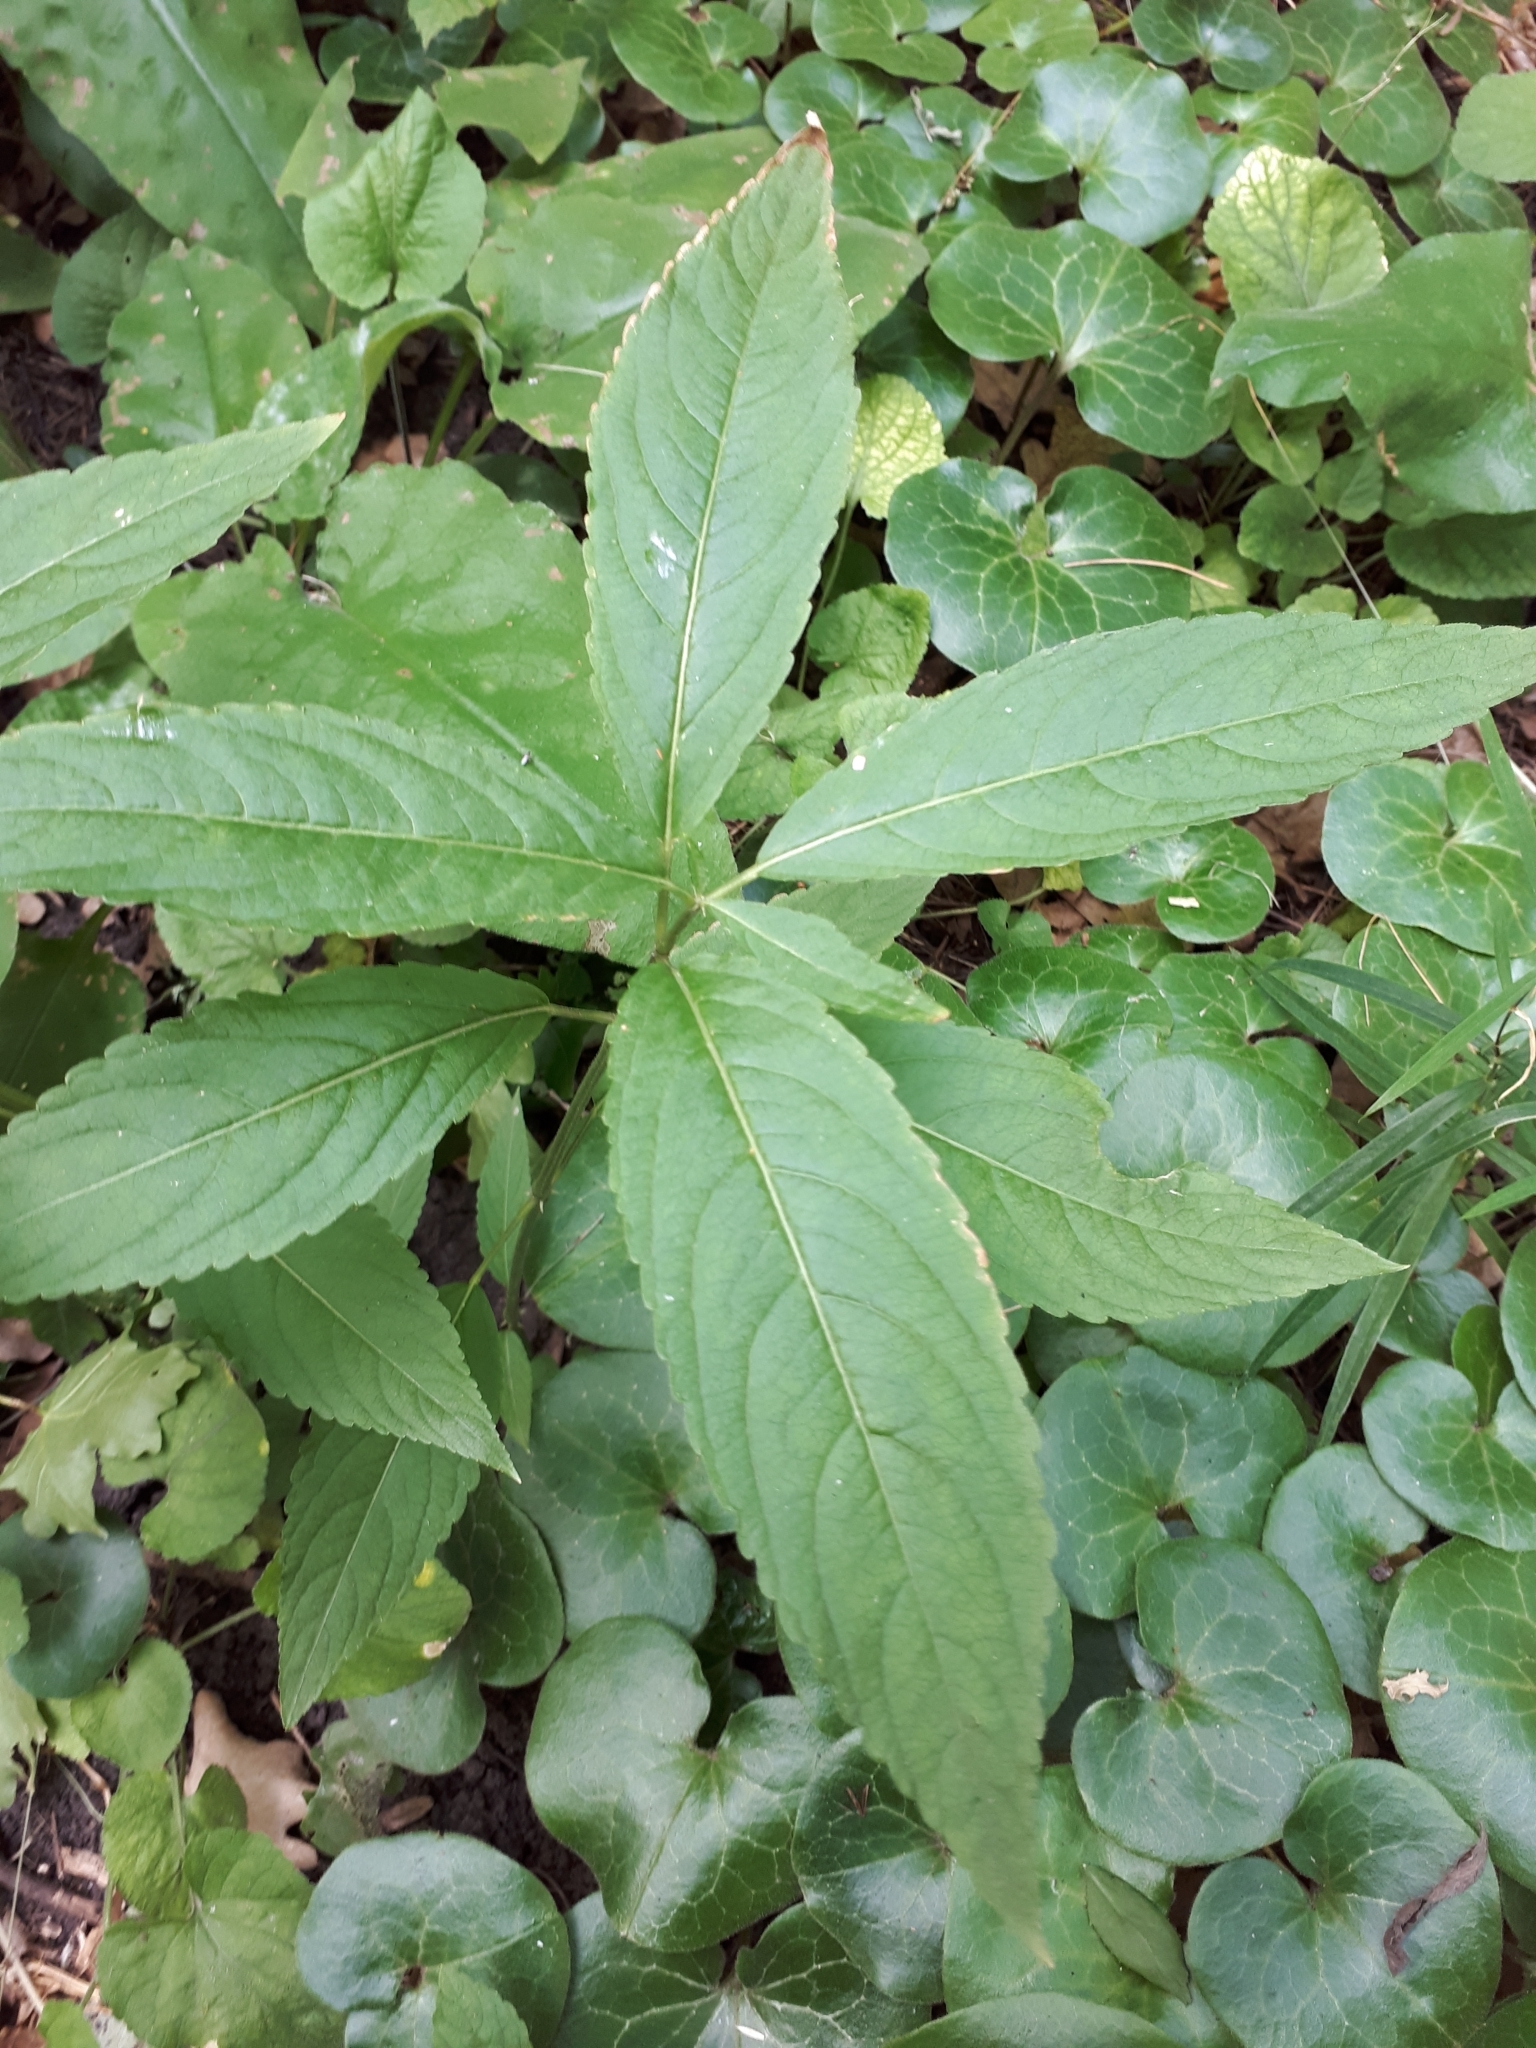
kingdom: Plantae
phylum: Tracheophyta
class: Magnoliopsida
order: Malpighiales
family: Euphorbiaceae
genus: Mercurialis
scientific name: Mercurialis perennis
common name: Dog mercury
